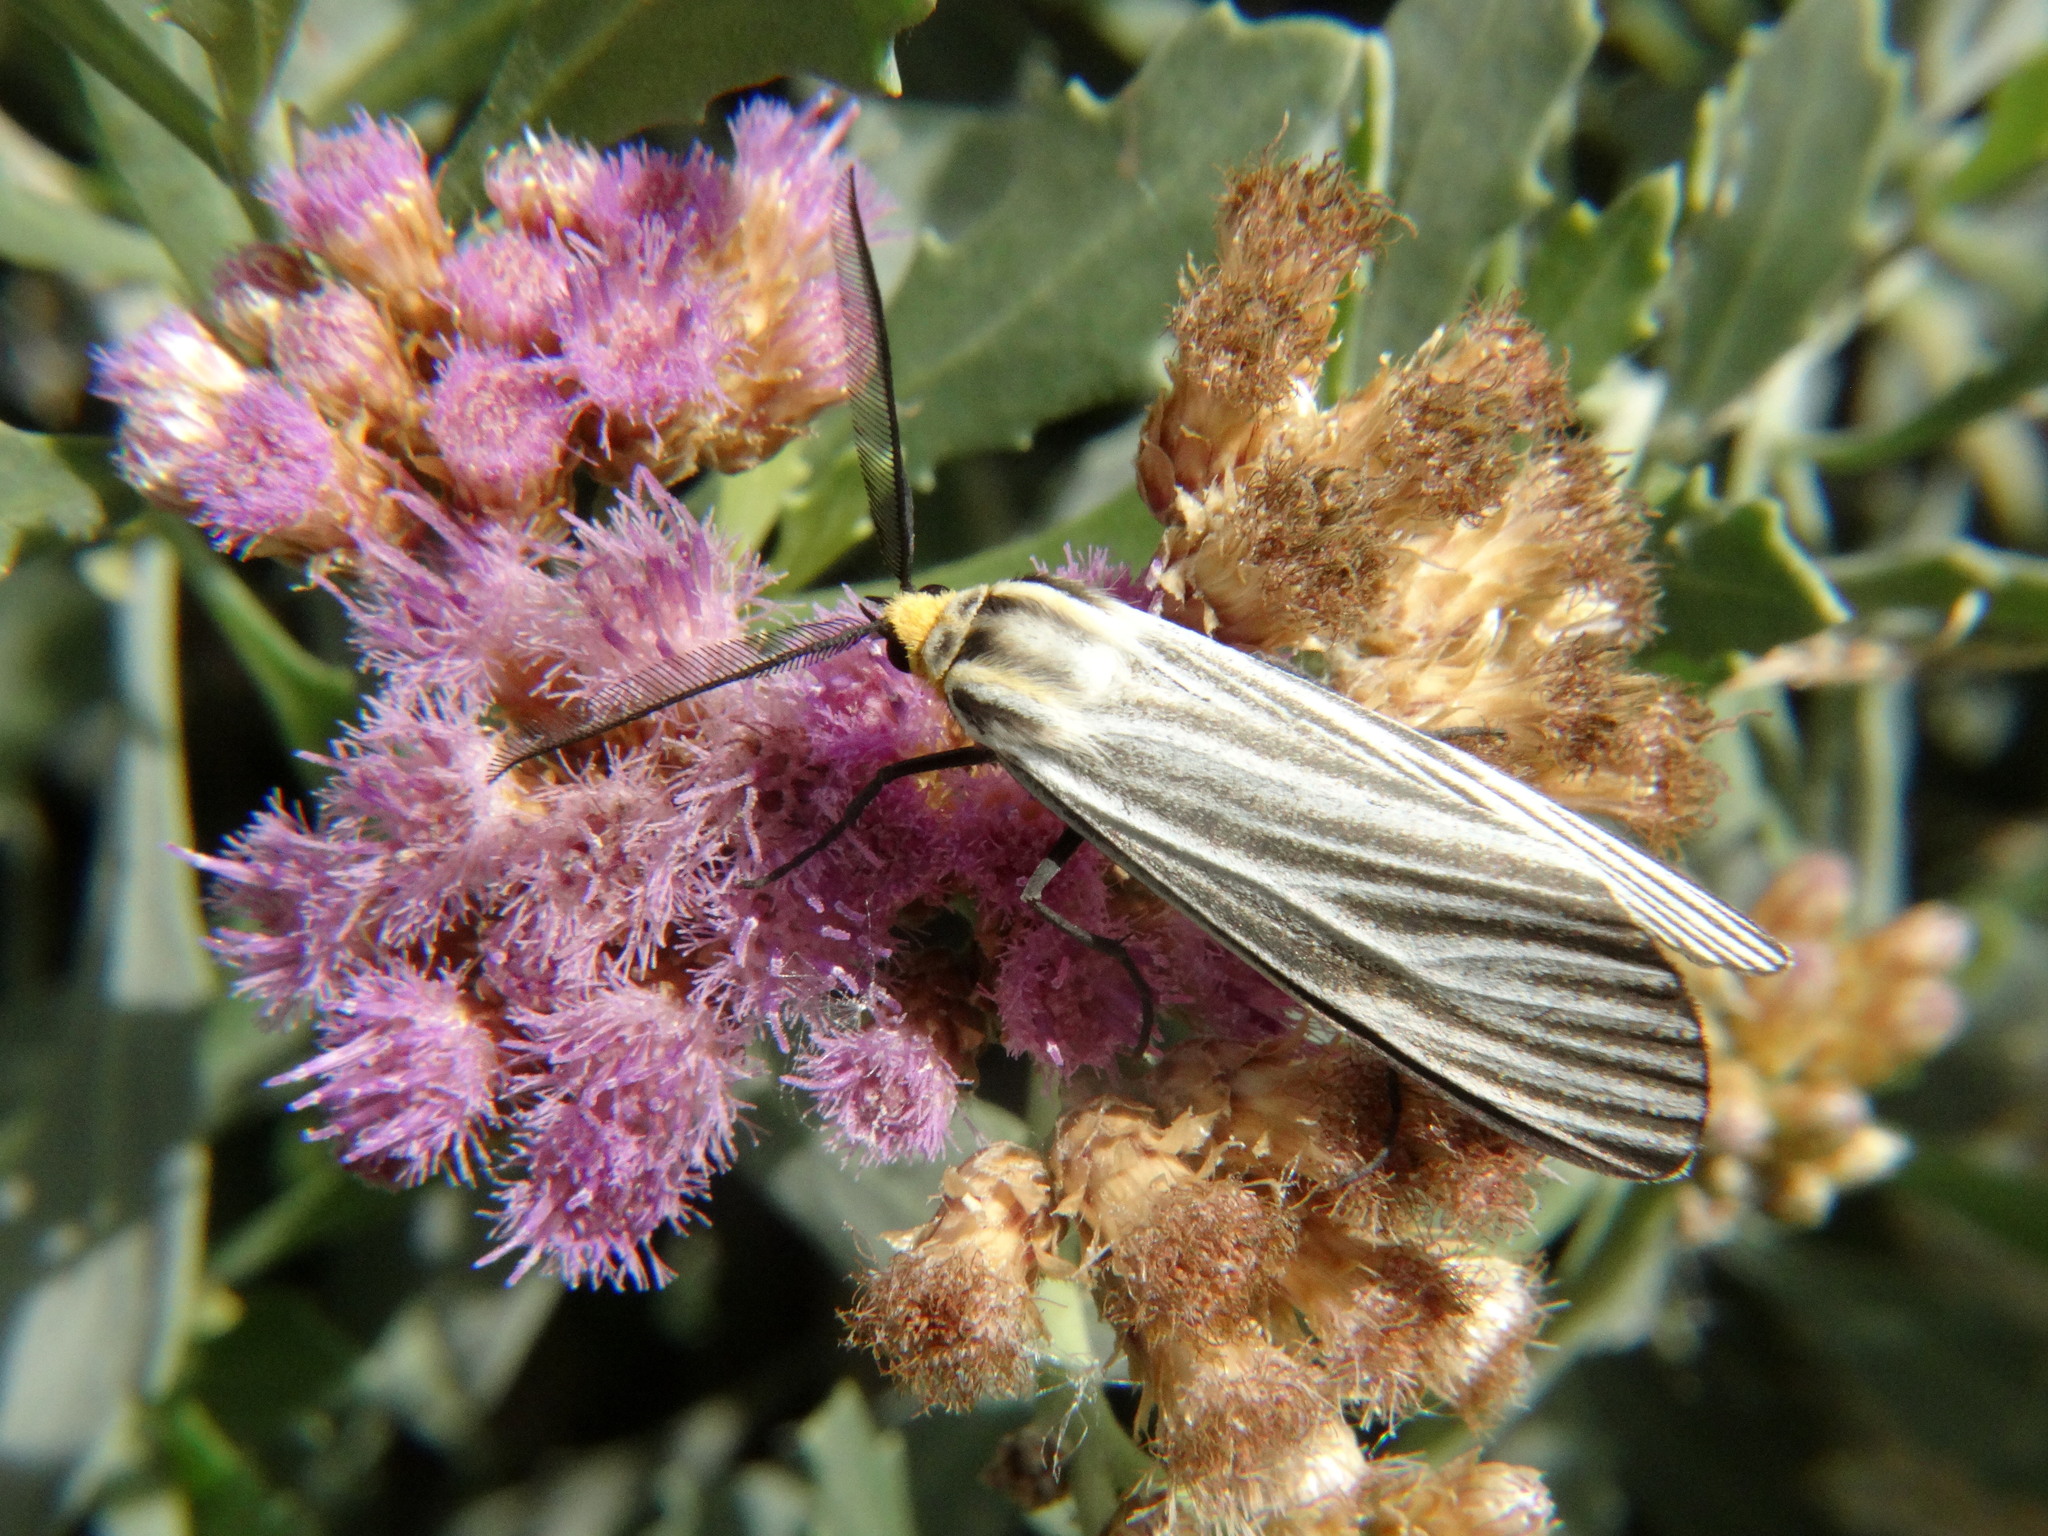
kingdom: Animalia
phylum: Arthropoda
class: Insecta
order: Lepidoptera
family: Erebidae
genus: Ctenucha
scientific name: Ctenucha vittigerum
